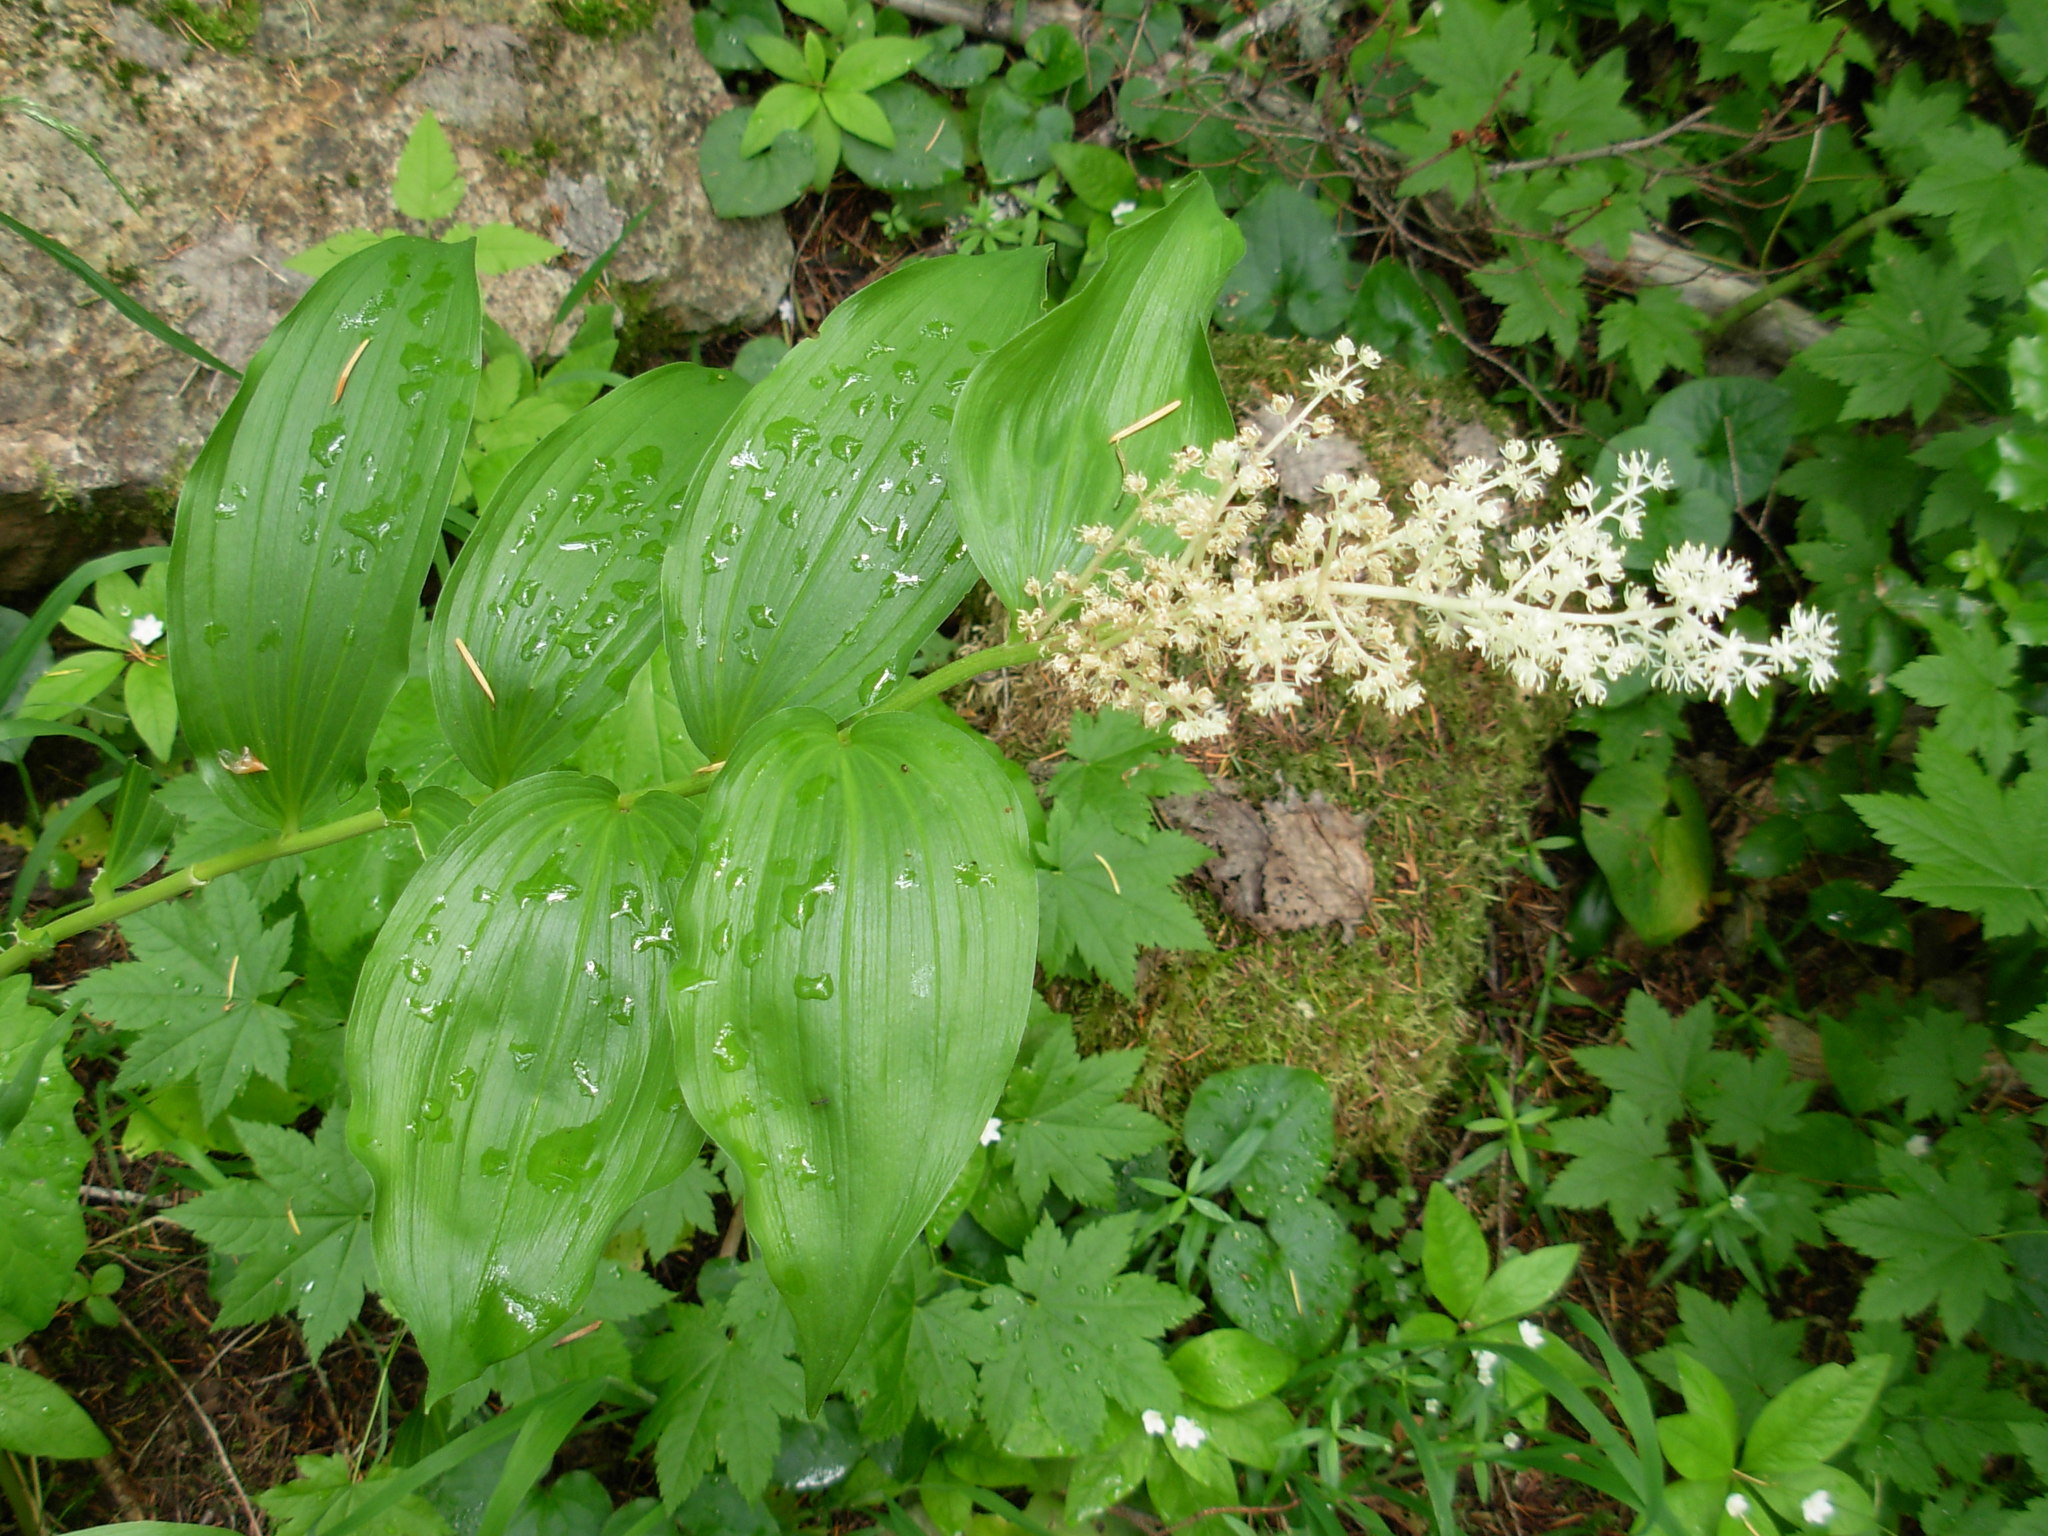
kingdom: Plantae
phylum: Tracheophyta
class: Liliopsida
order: Asparagales
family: Asparagaceae
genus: Maianthemum
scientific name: Maianthemum racemosum
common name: False spikenard
